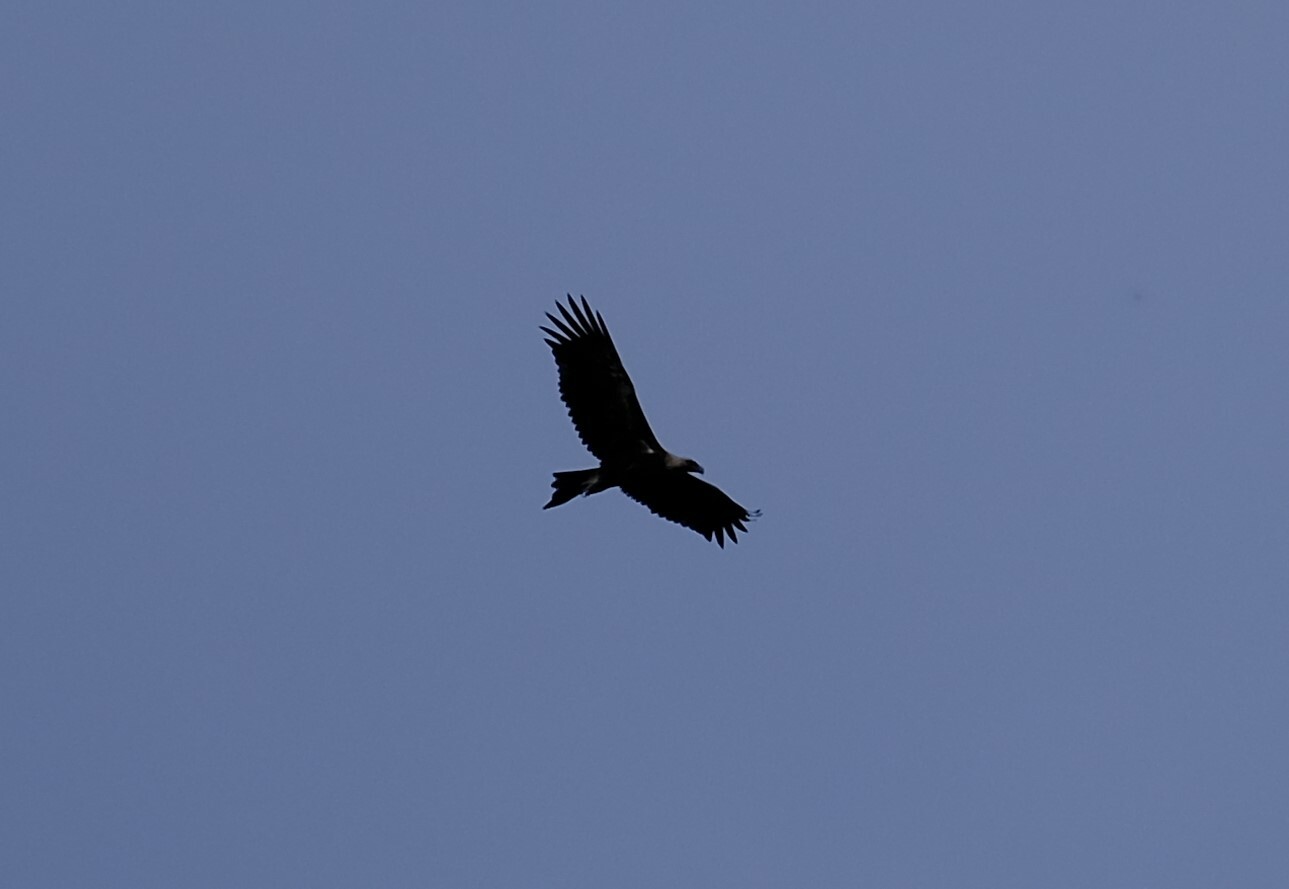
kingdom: Animalia
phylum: Chordata
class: Aves
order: Accipitriformes
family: Accipitridae
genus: Aquila
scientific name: Aquila audax
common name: Wedge-tailed eagle
